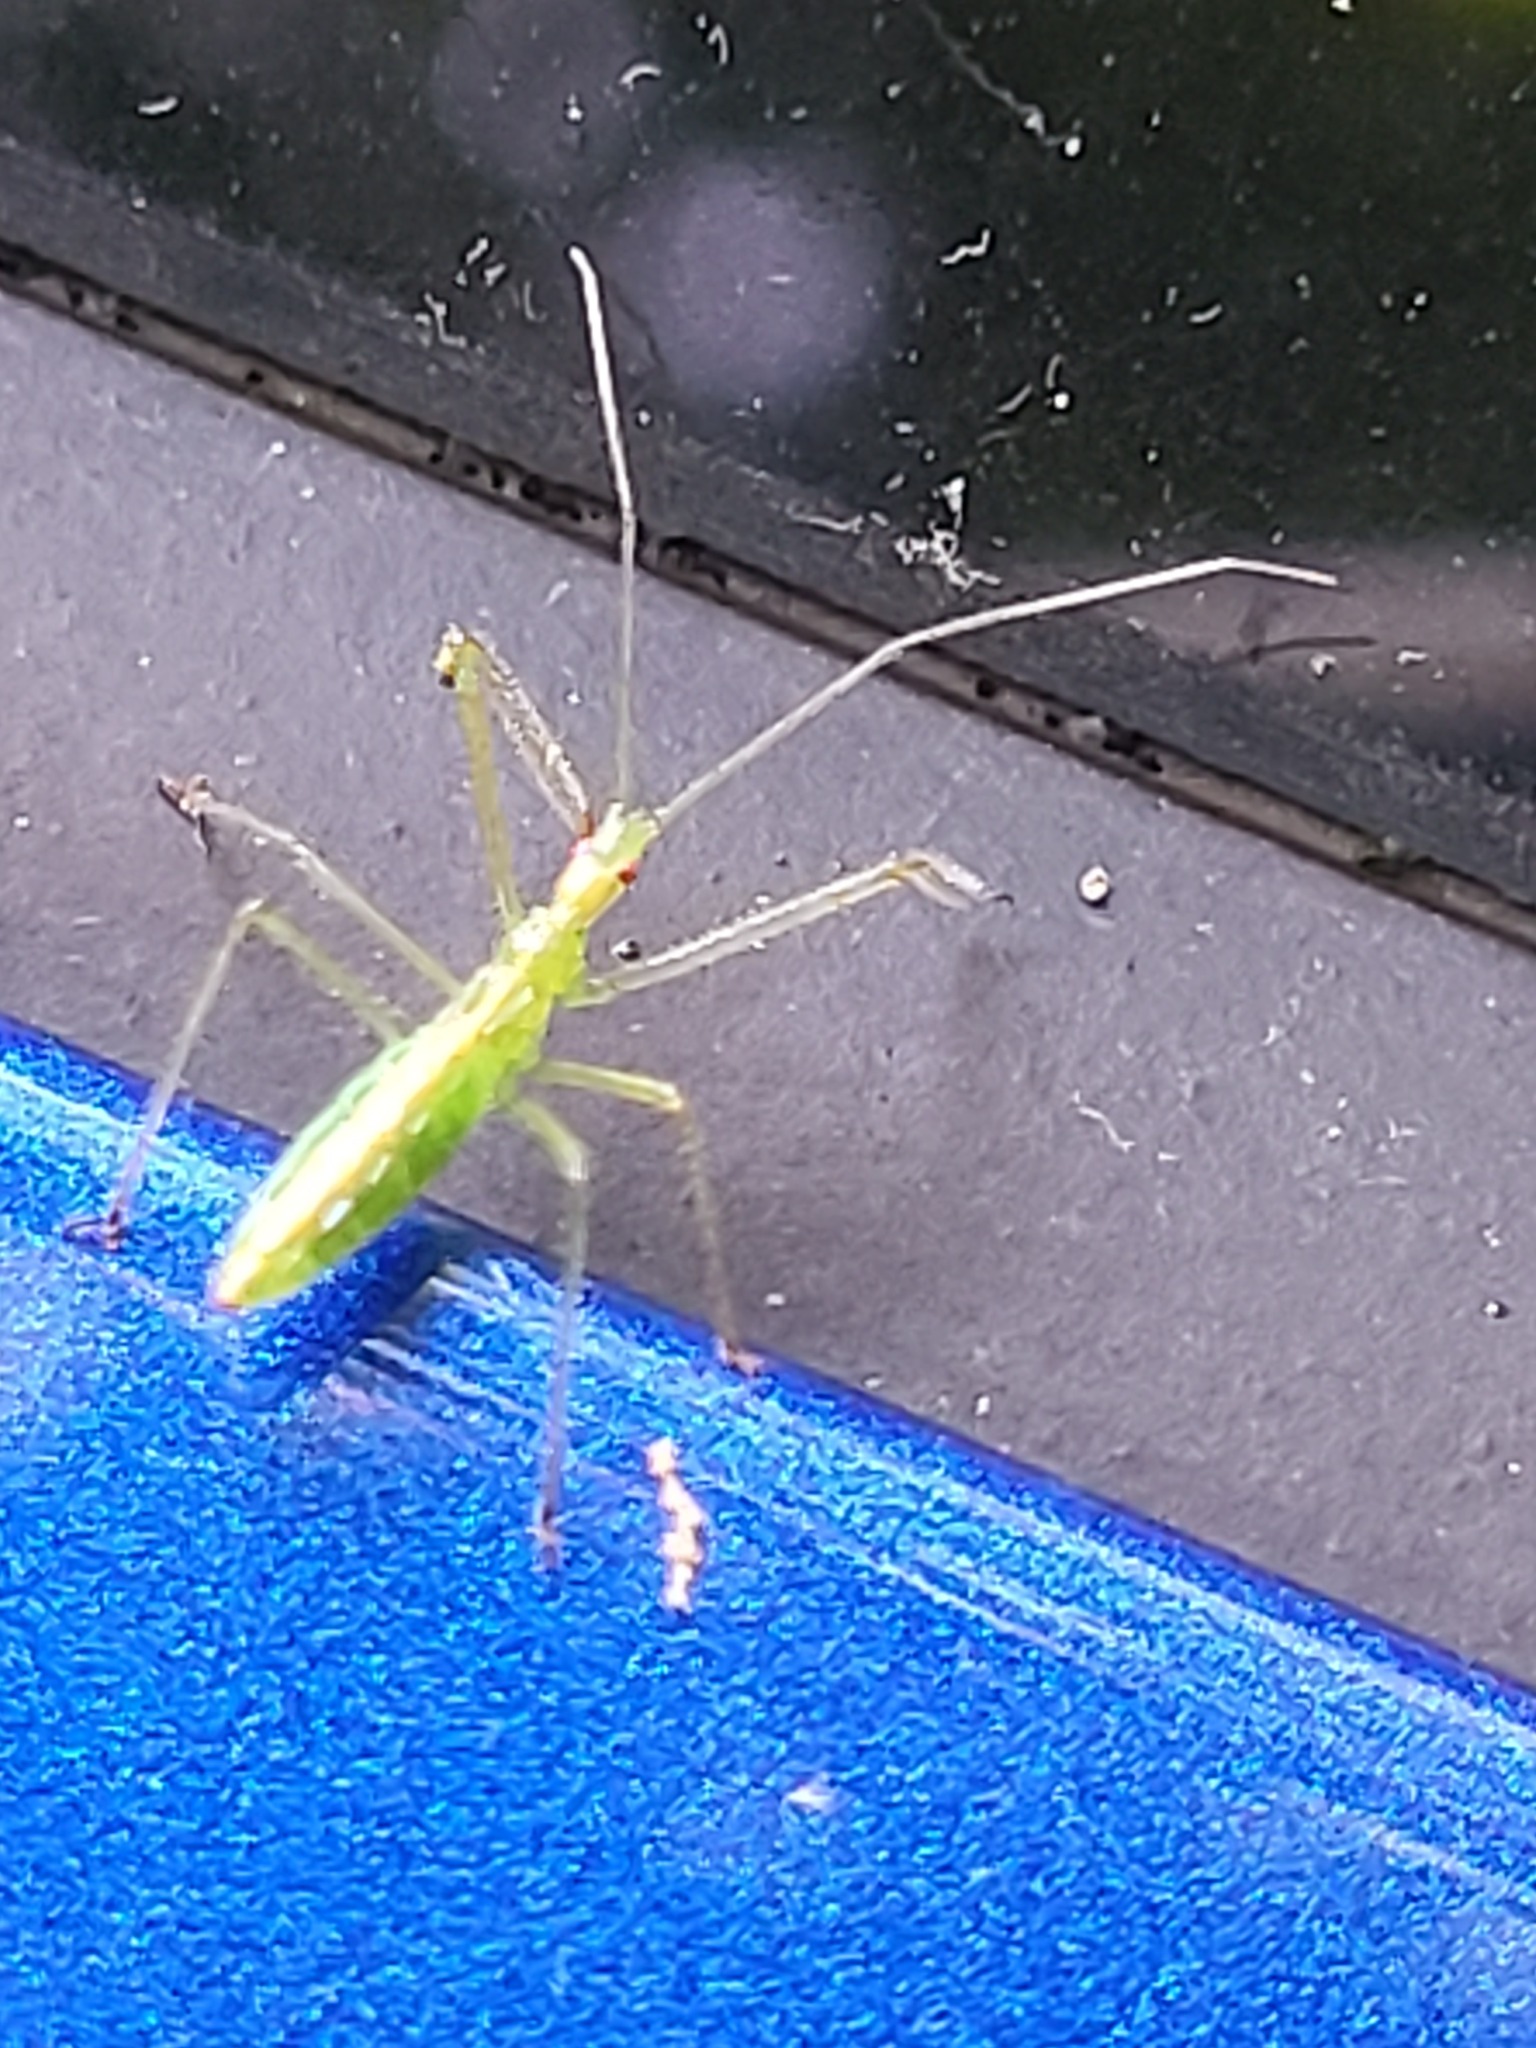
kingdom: Animalia
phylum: Arthropoda
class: Insecta
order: Hemiptera
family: Reduviidae
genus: Zelus
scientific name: Zelus luridus
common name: Pale green assassin bug
